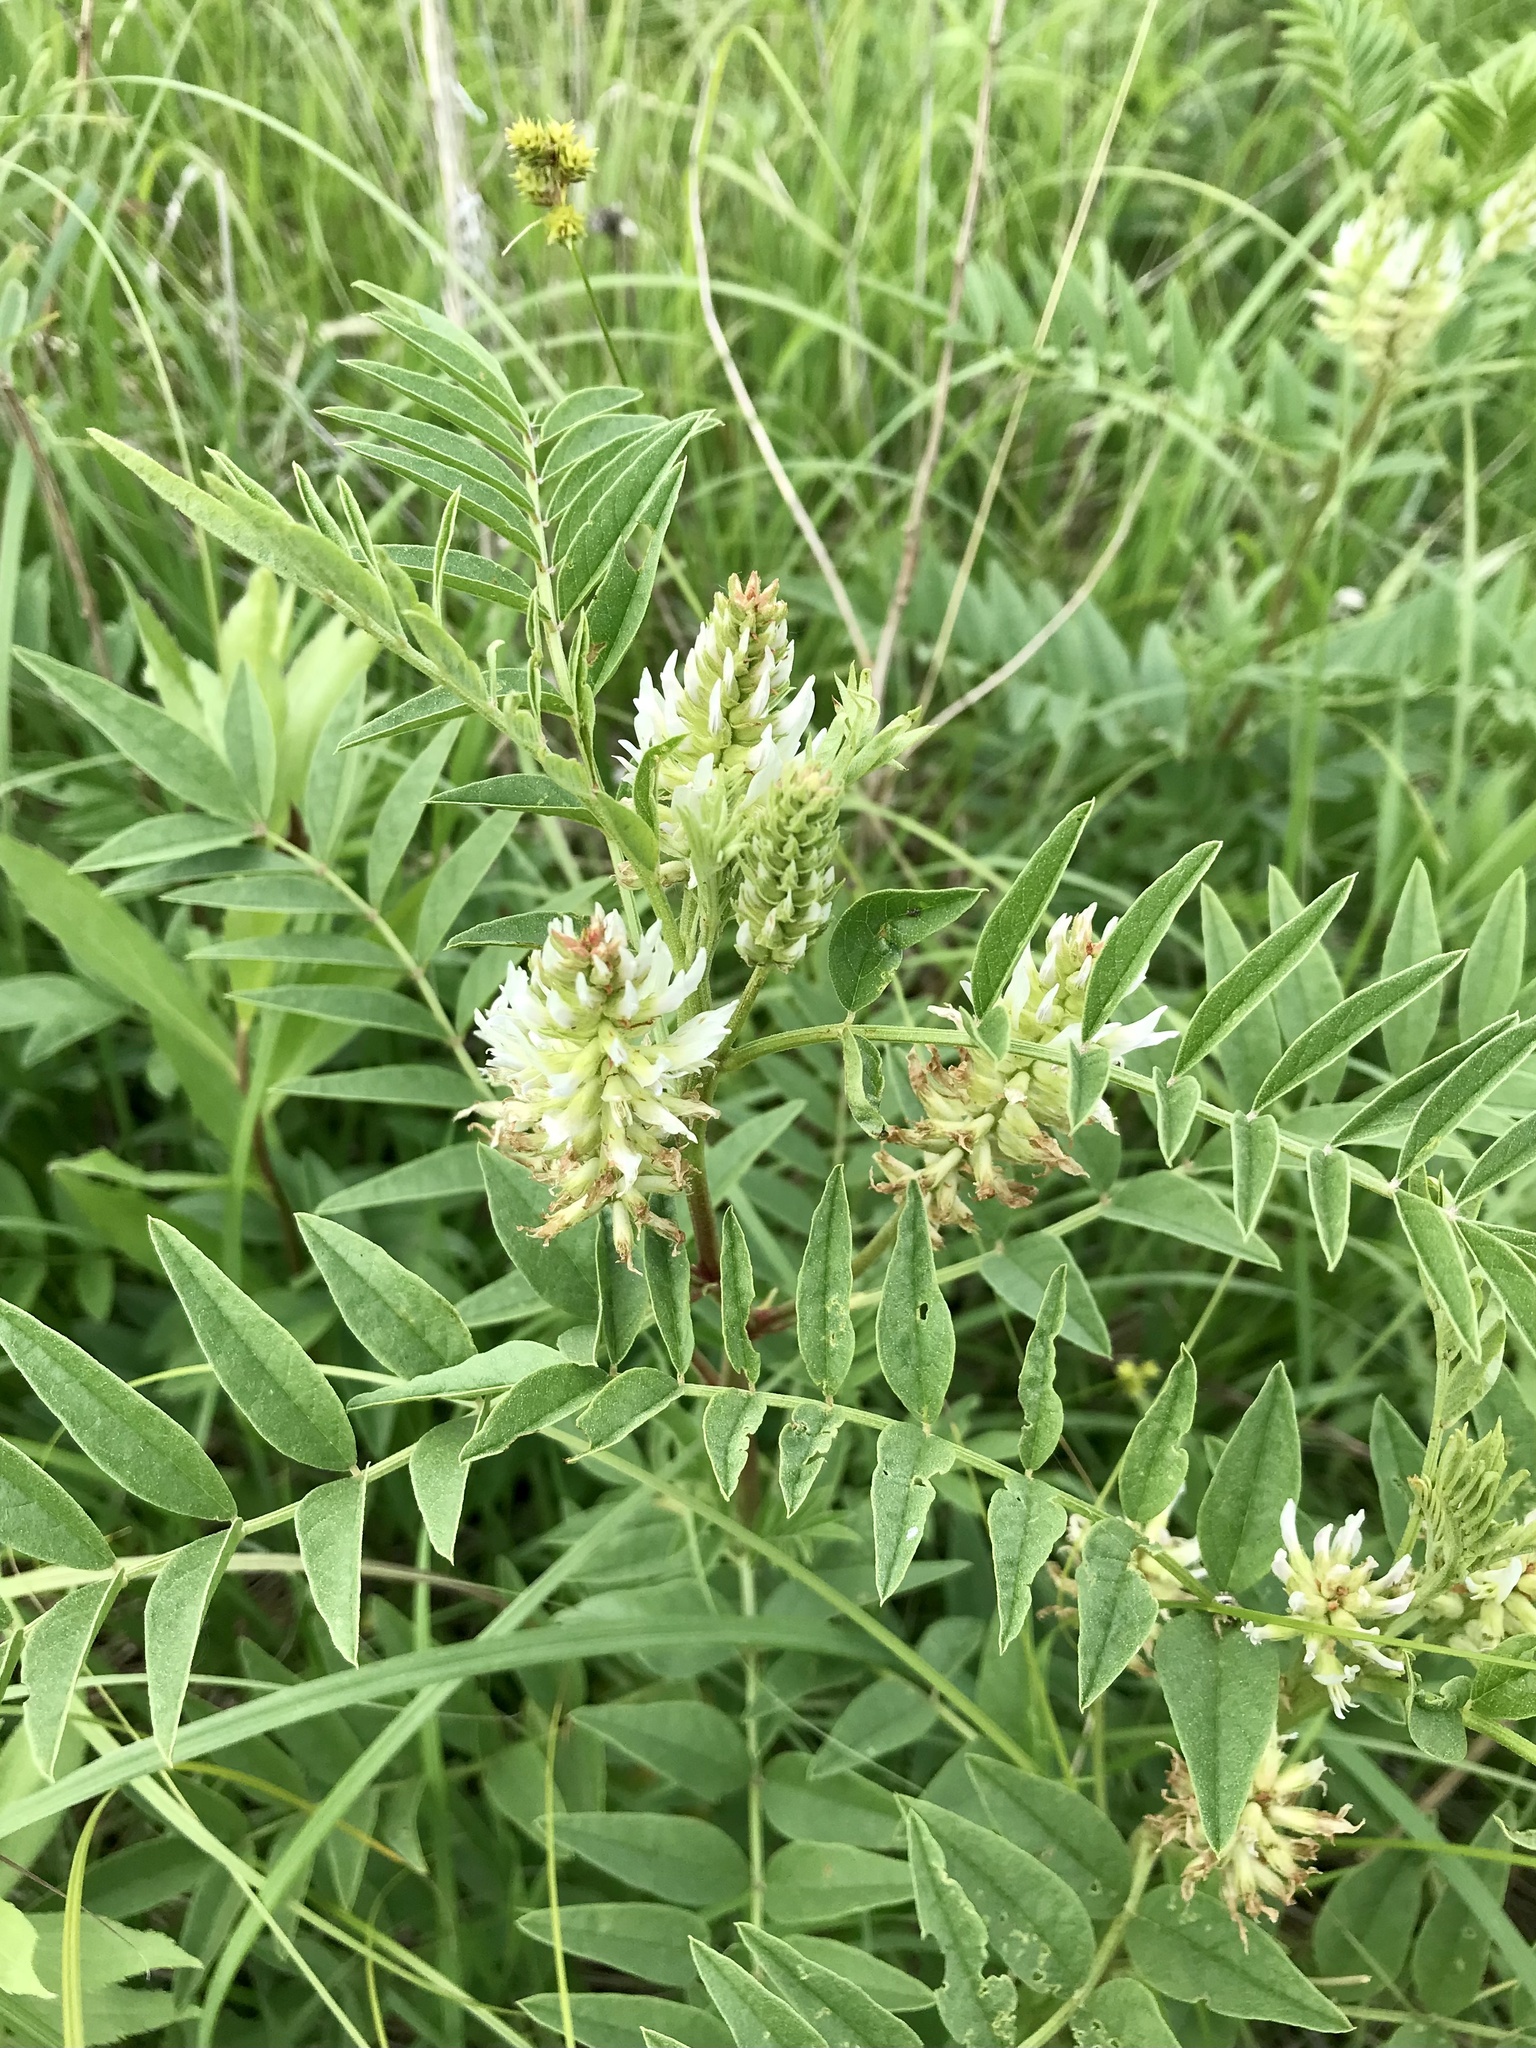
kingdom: Plantae
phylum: Tracheophyta
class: Magnoliopsida
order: Fabales
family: Fabaceae
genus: Glycyrrhiza
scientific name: Glycyrrhiza lepidota
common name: American liquorice
